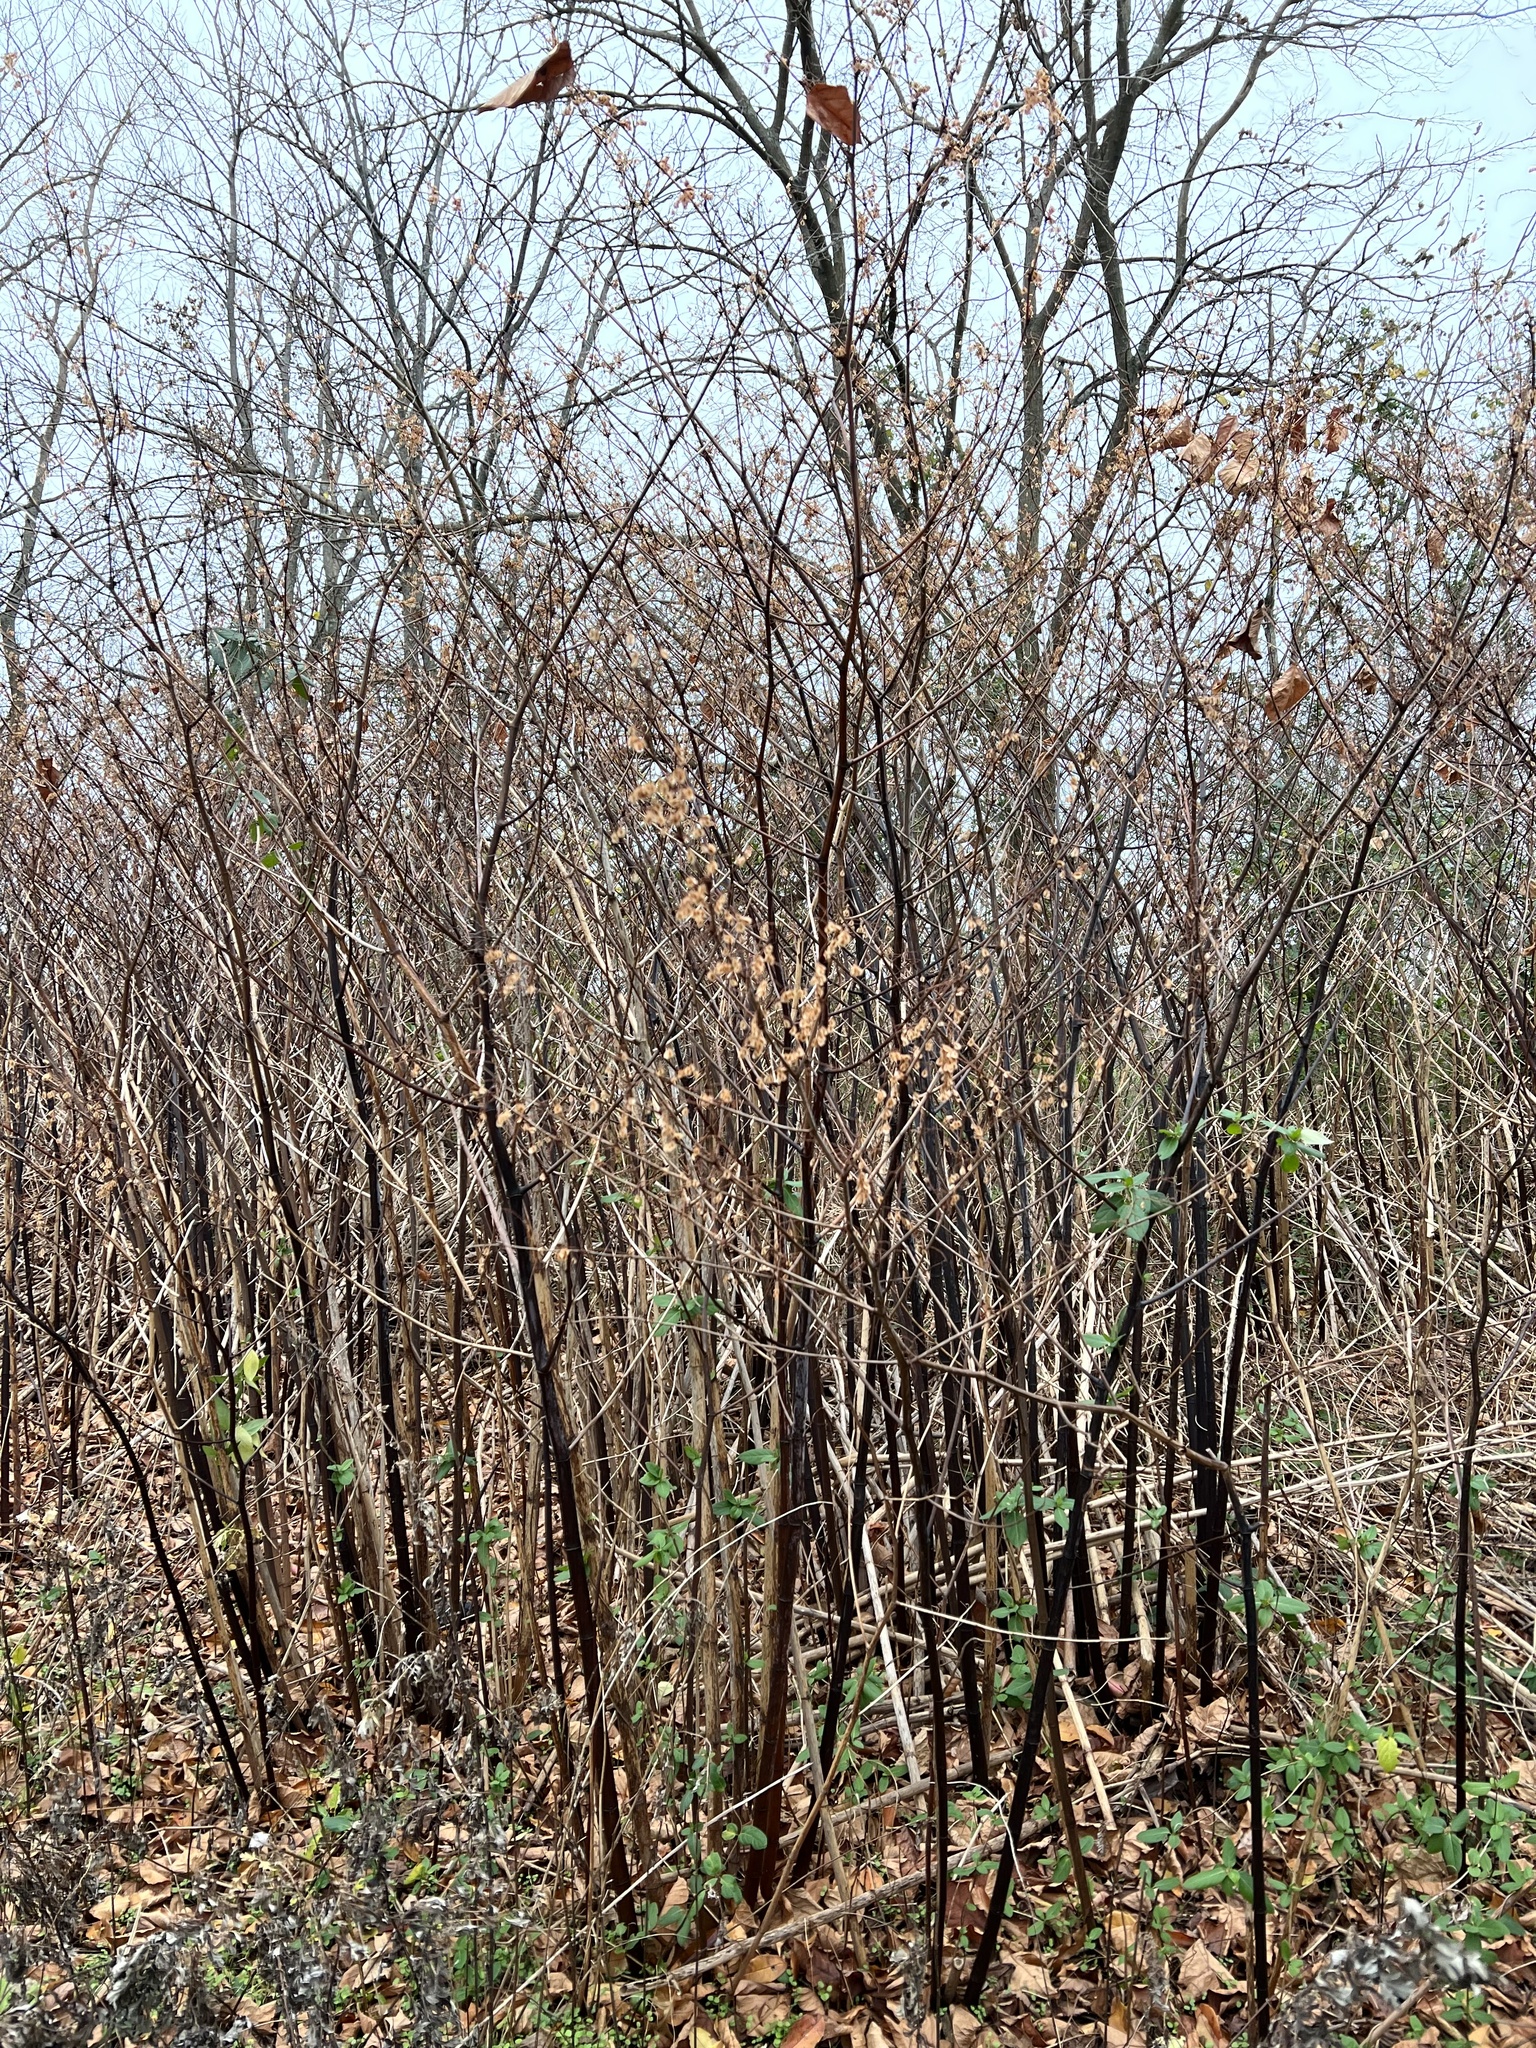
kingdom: Plantae
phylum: Tracheophyta
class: Magnoliopsida
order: Caryophyllales
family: Polygonaceae
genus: Reynoutria
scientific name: Reynoutria japonica
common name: Japanese knotweed
